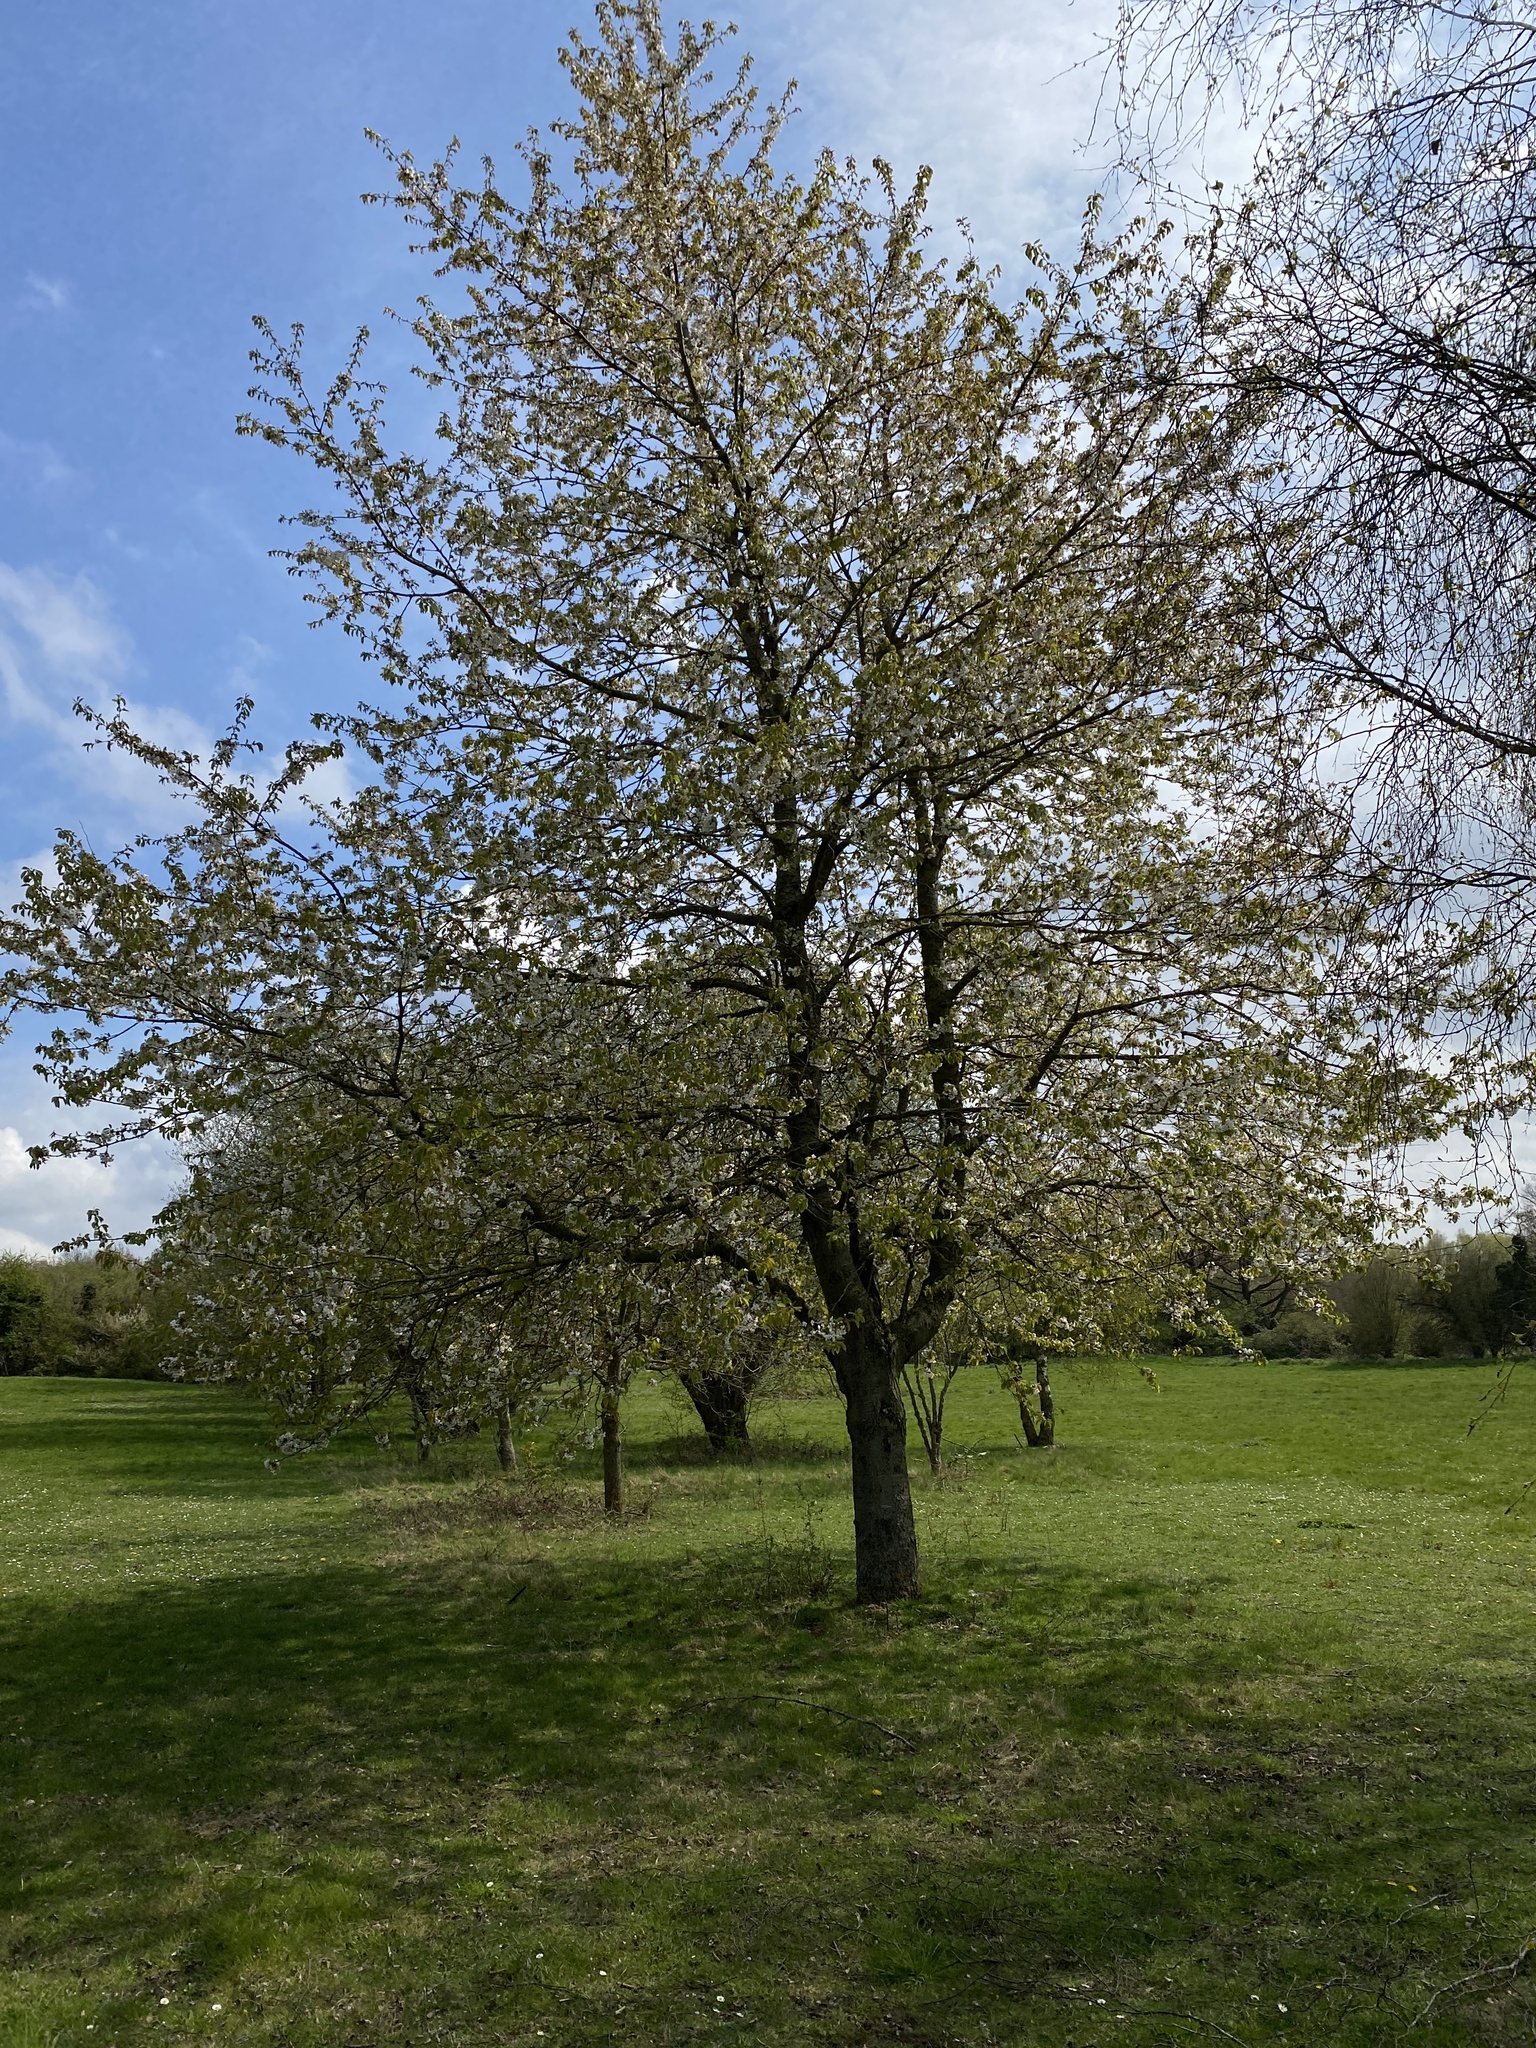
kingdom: Plantae
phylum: Tracheophyta
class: Magnoliopsida
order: Rosales
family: Rosaceae
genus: Prunus
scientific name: Prunus avium
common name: Sweet cherry
